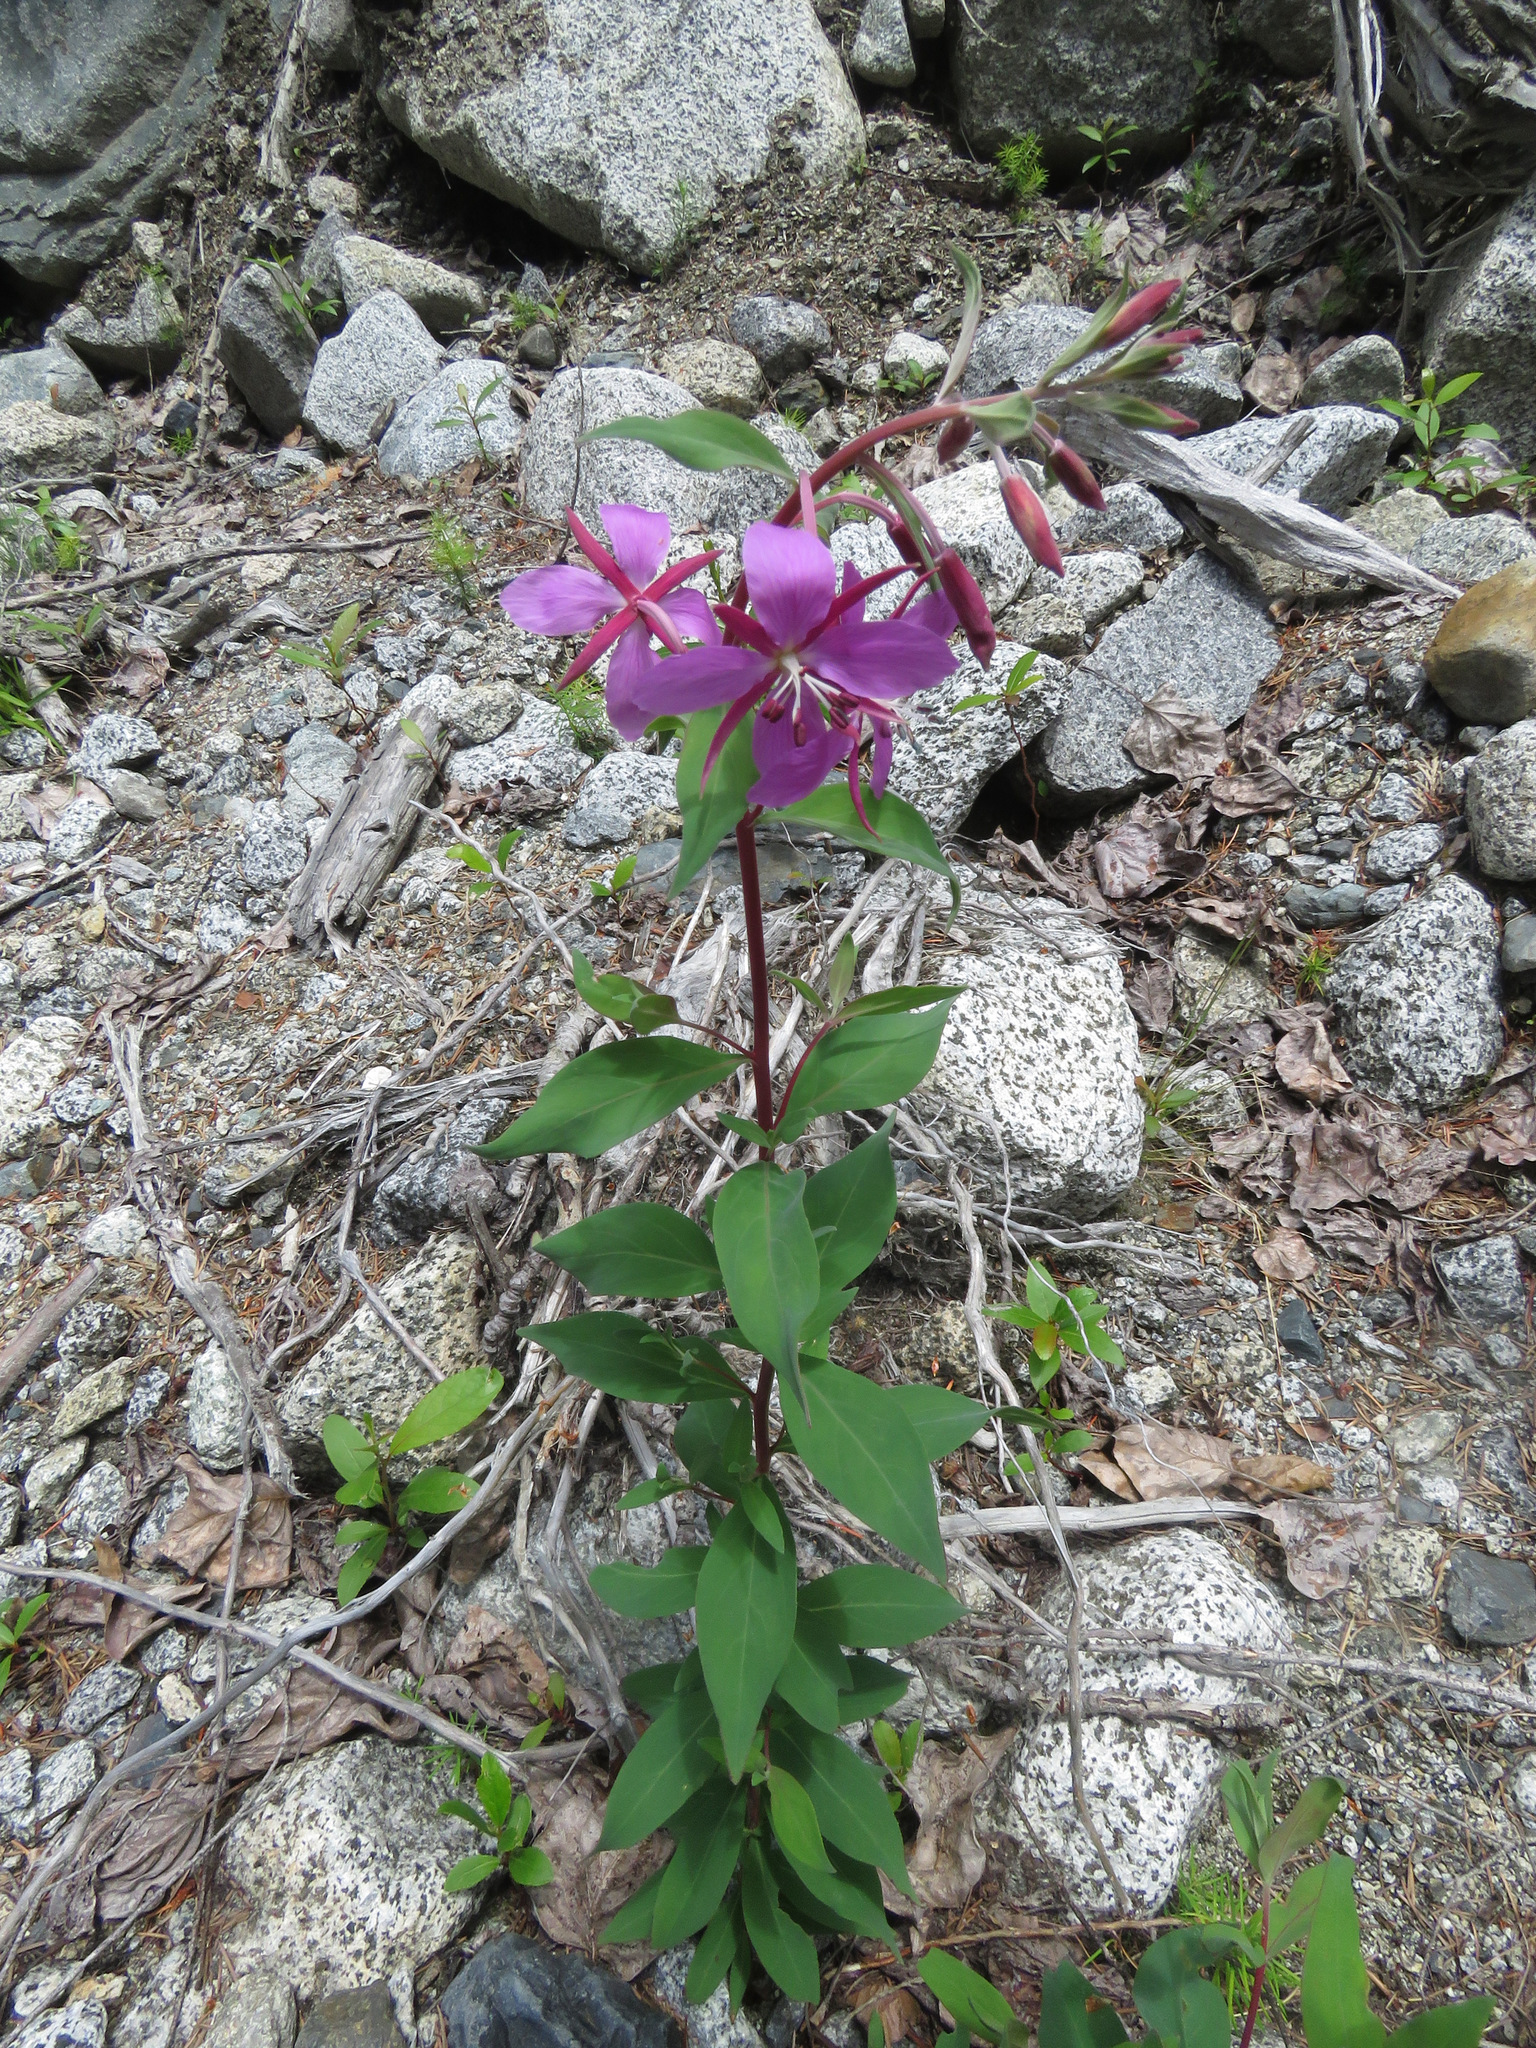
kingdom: Plantae
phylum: Tracheophyta
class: Magnoliopsida
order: Myrtales
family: Onagraceae
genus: Chamaenerion
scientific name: Chamaenerion latifolium
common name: Dwarf fireweed
